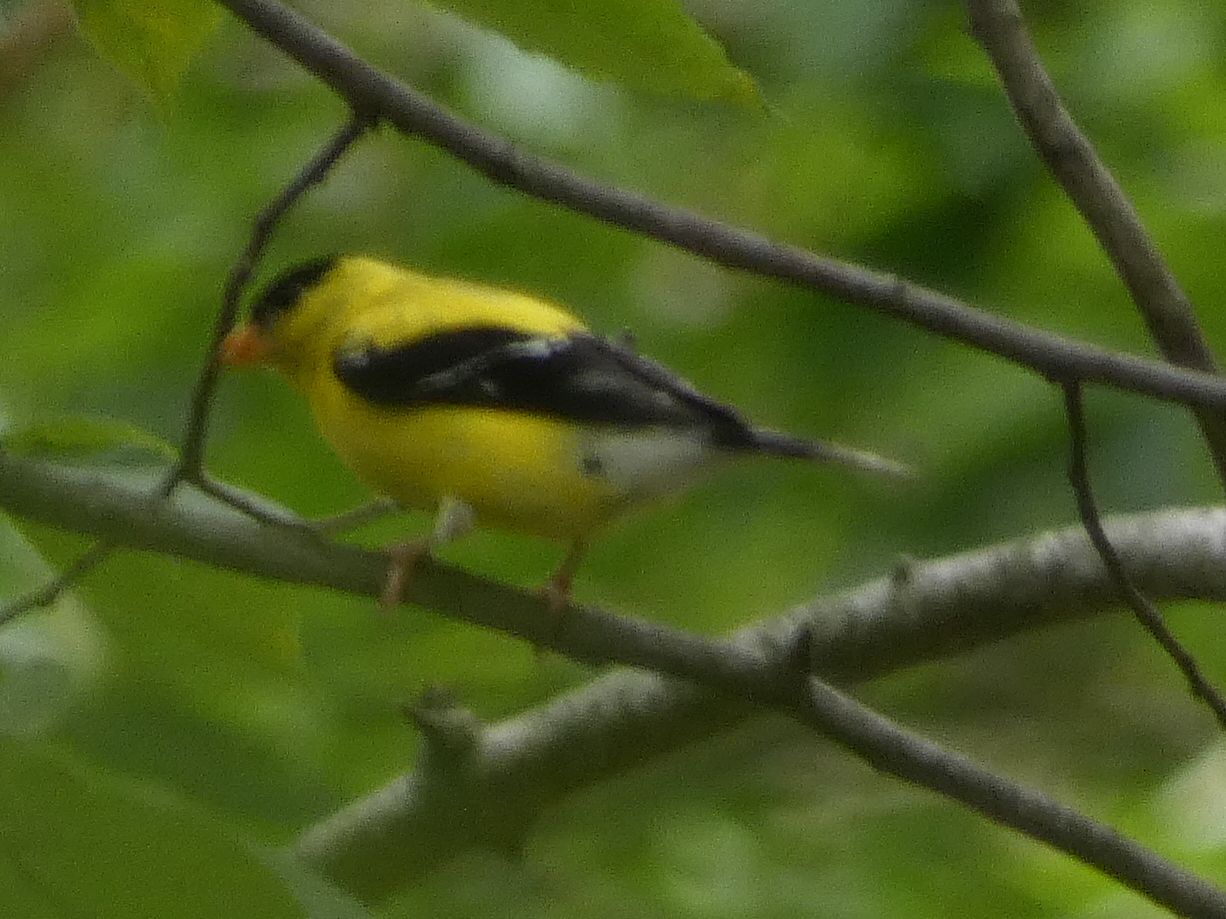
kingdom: Animalia
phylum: Chordata
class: Aves
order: Passeriformes
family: Fringillidae
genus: Spinus
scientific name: Spinus tristis
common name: American goldfinch
